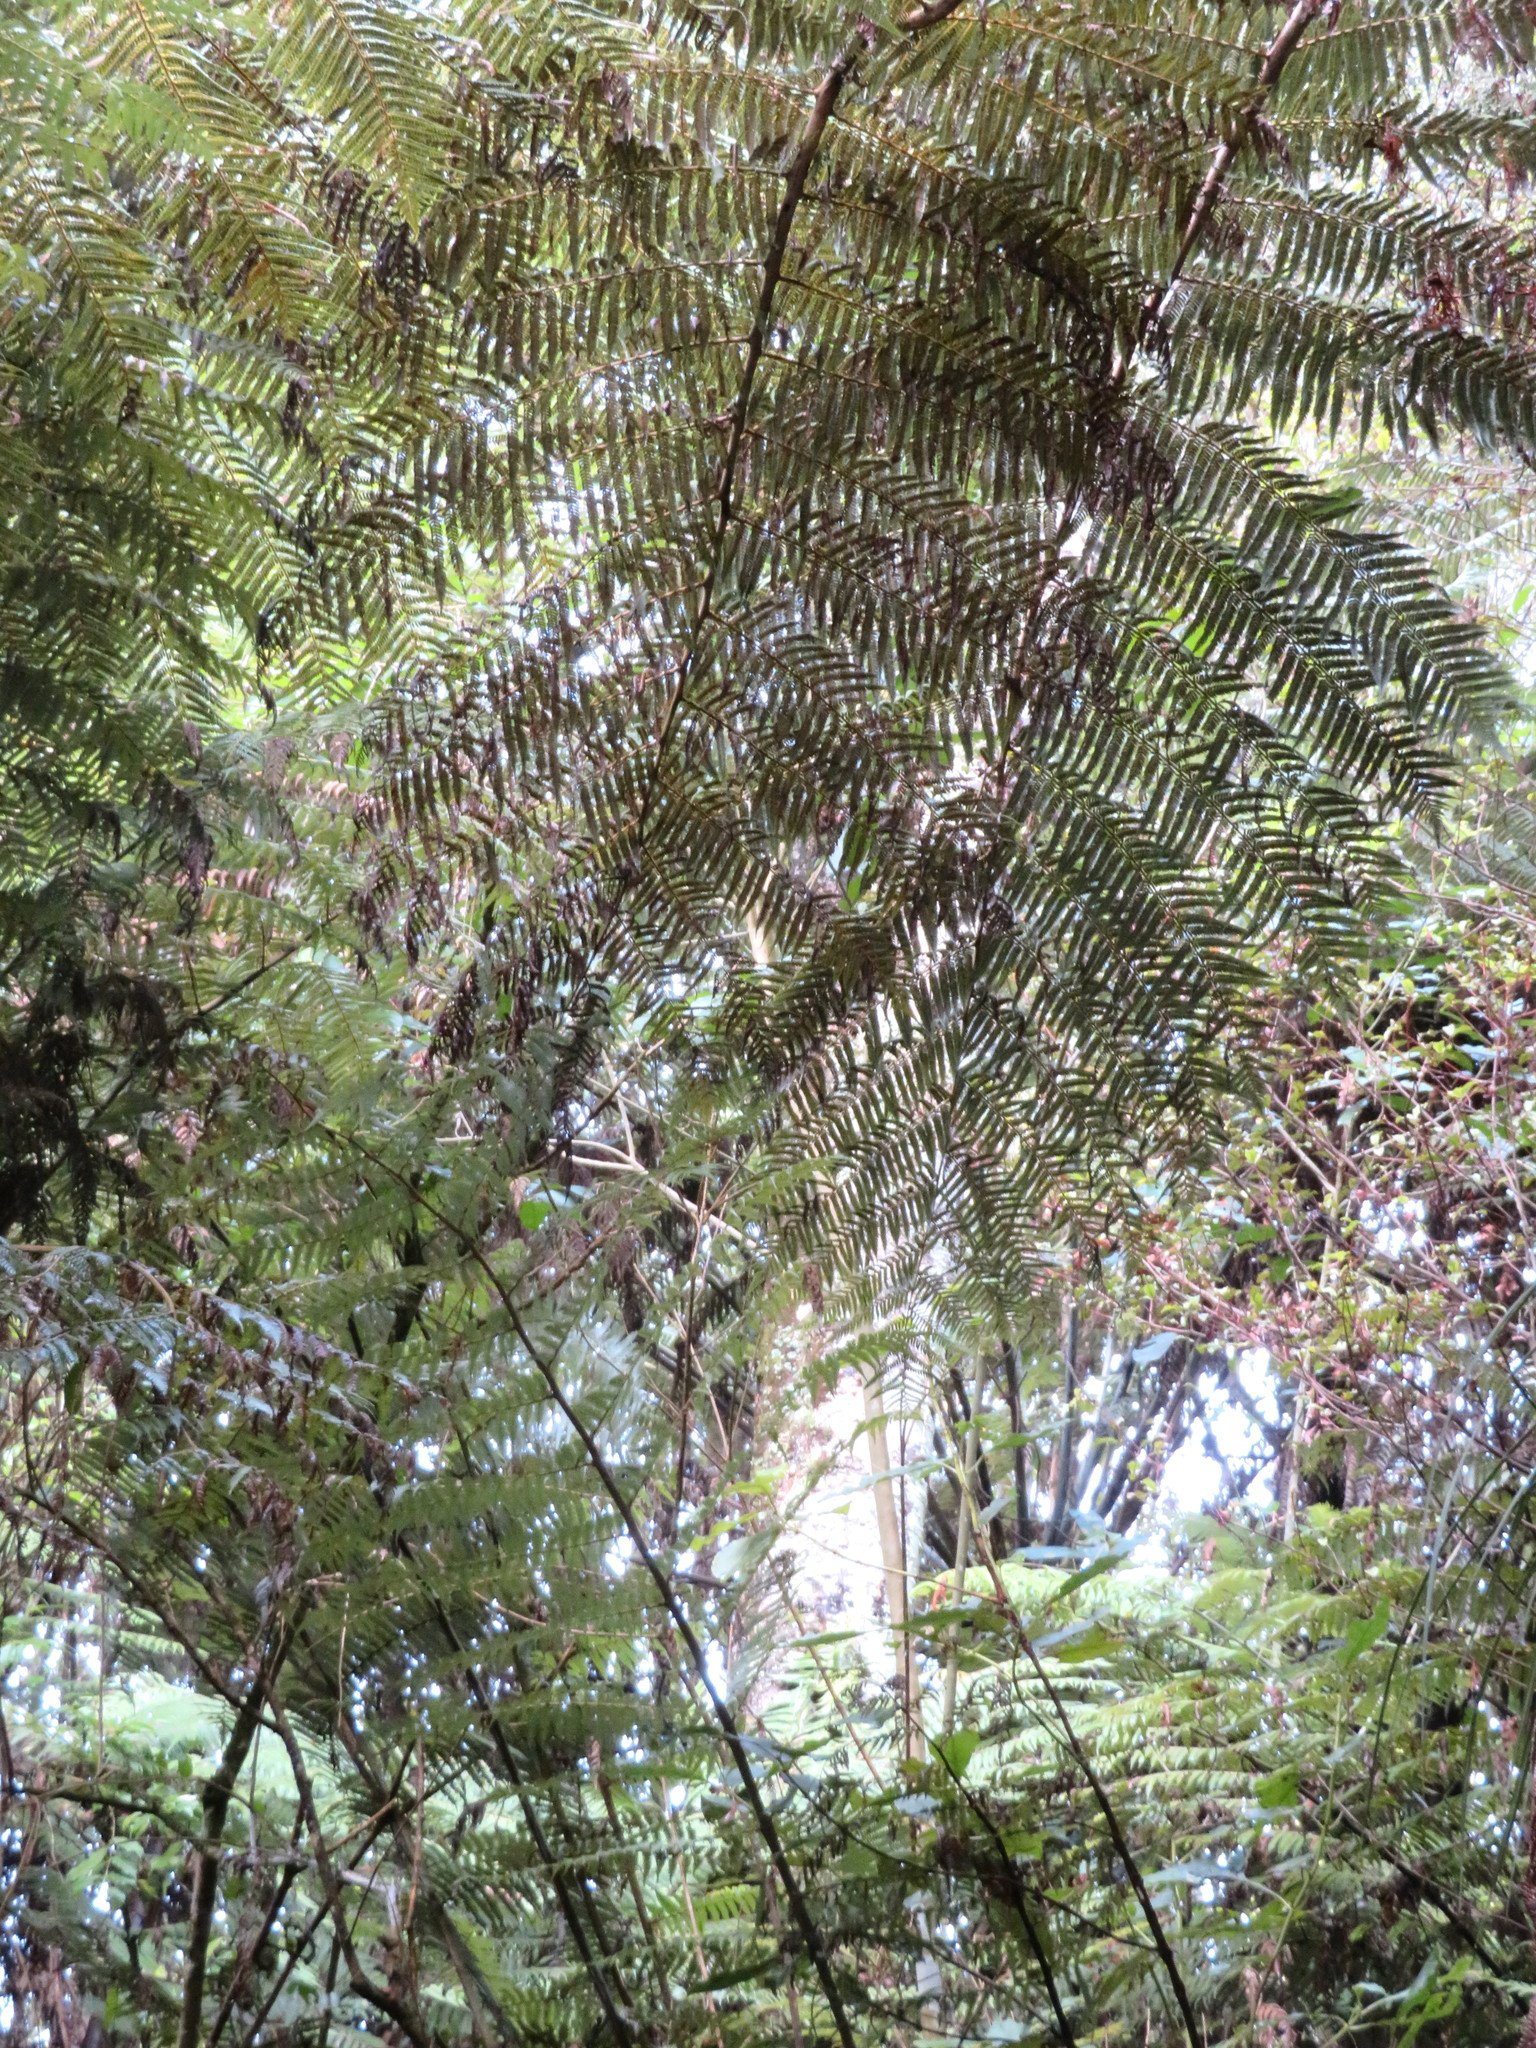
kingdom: Plantae
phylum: Tracheophyta
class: Polypodiopsida
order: Cyatheales
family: Cyatheaceae
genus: Alsophila
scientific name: Alsophila dealbata
